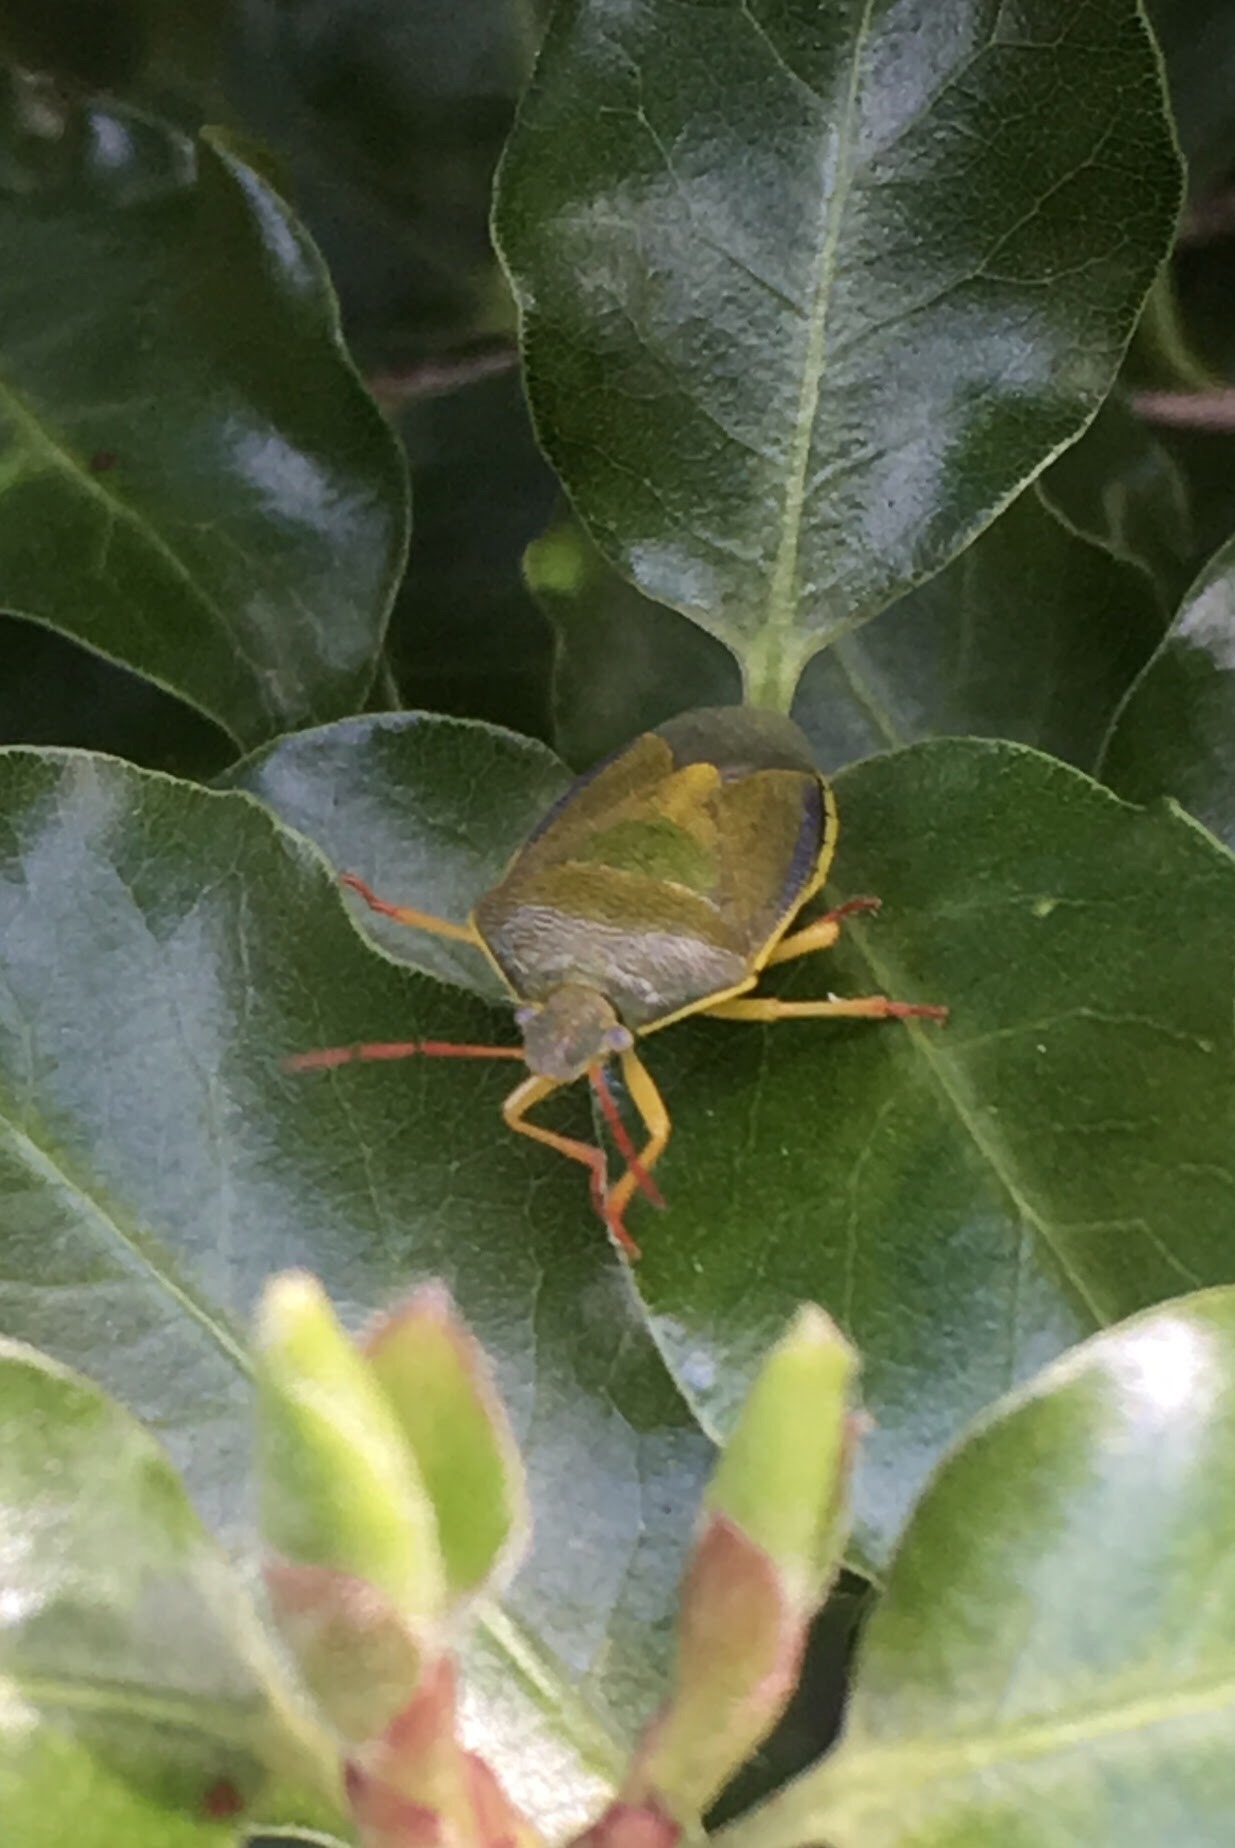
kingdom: Animalia
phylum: Arthropoda
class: Insecta
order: Hemiptera
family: Pentatomidae
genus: Piezodorus
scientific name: Piezodorus lituratus
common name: Stink bug
